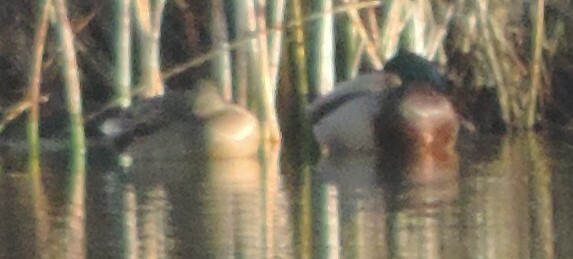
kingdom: Animalia
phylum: Chordata
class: Aves
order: Anseriformes
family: Anatidae
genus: Anas
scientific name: Anas platyrhynchos
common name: Mallard
